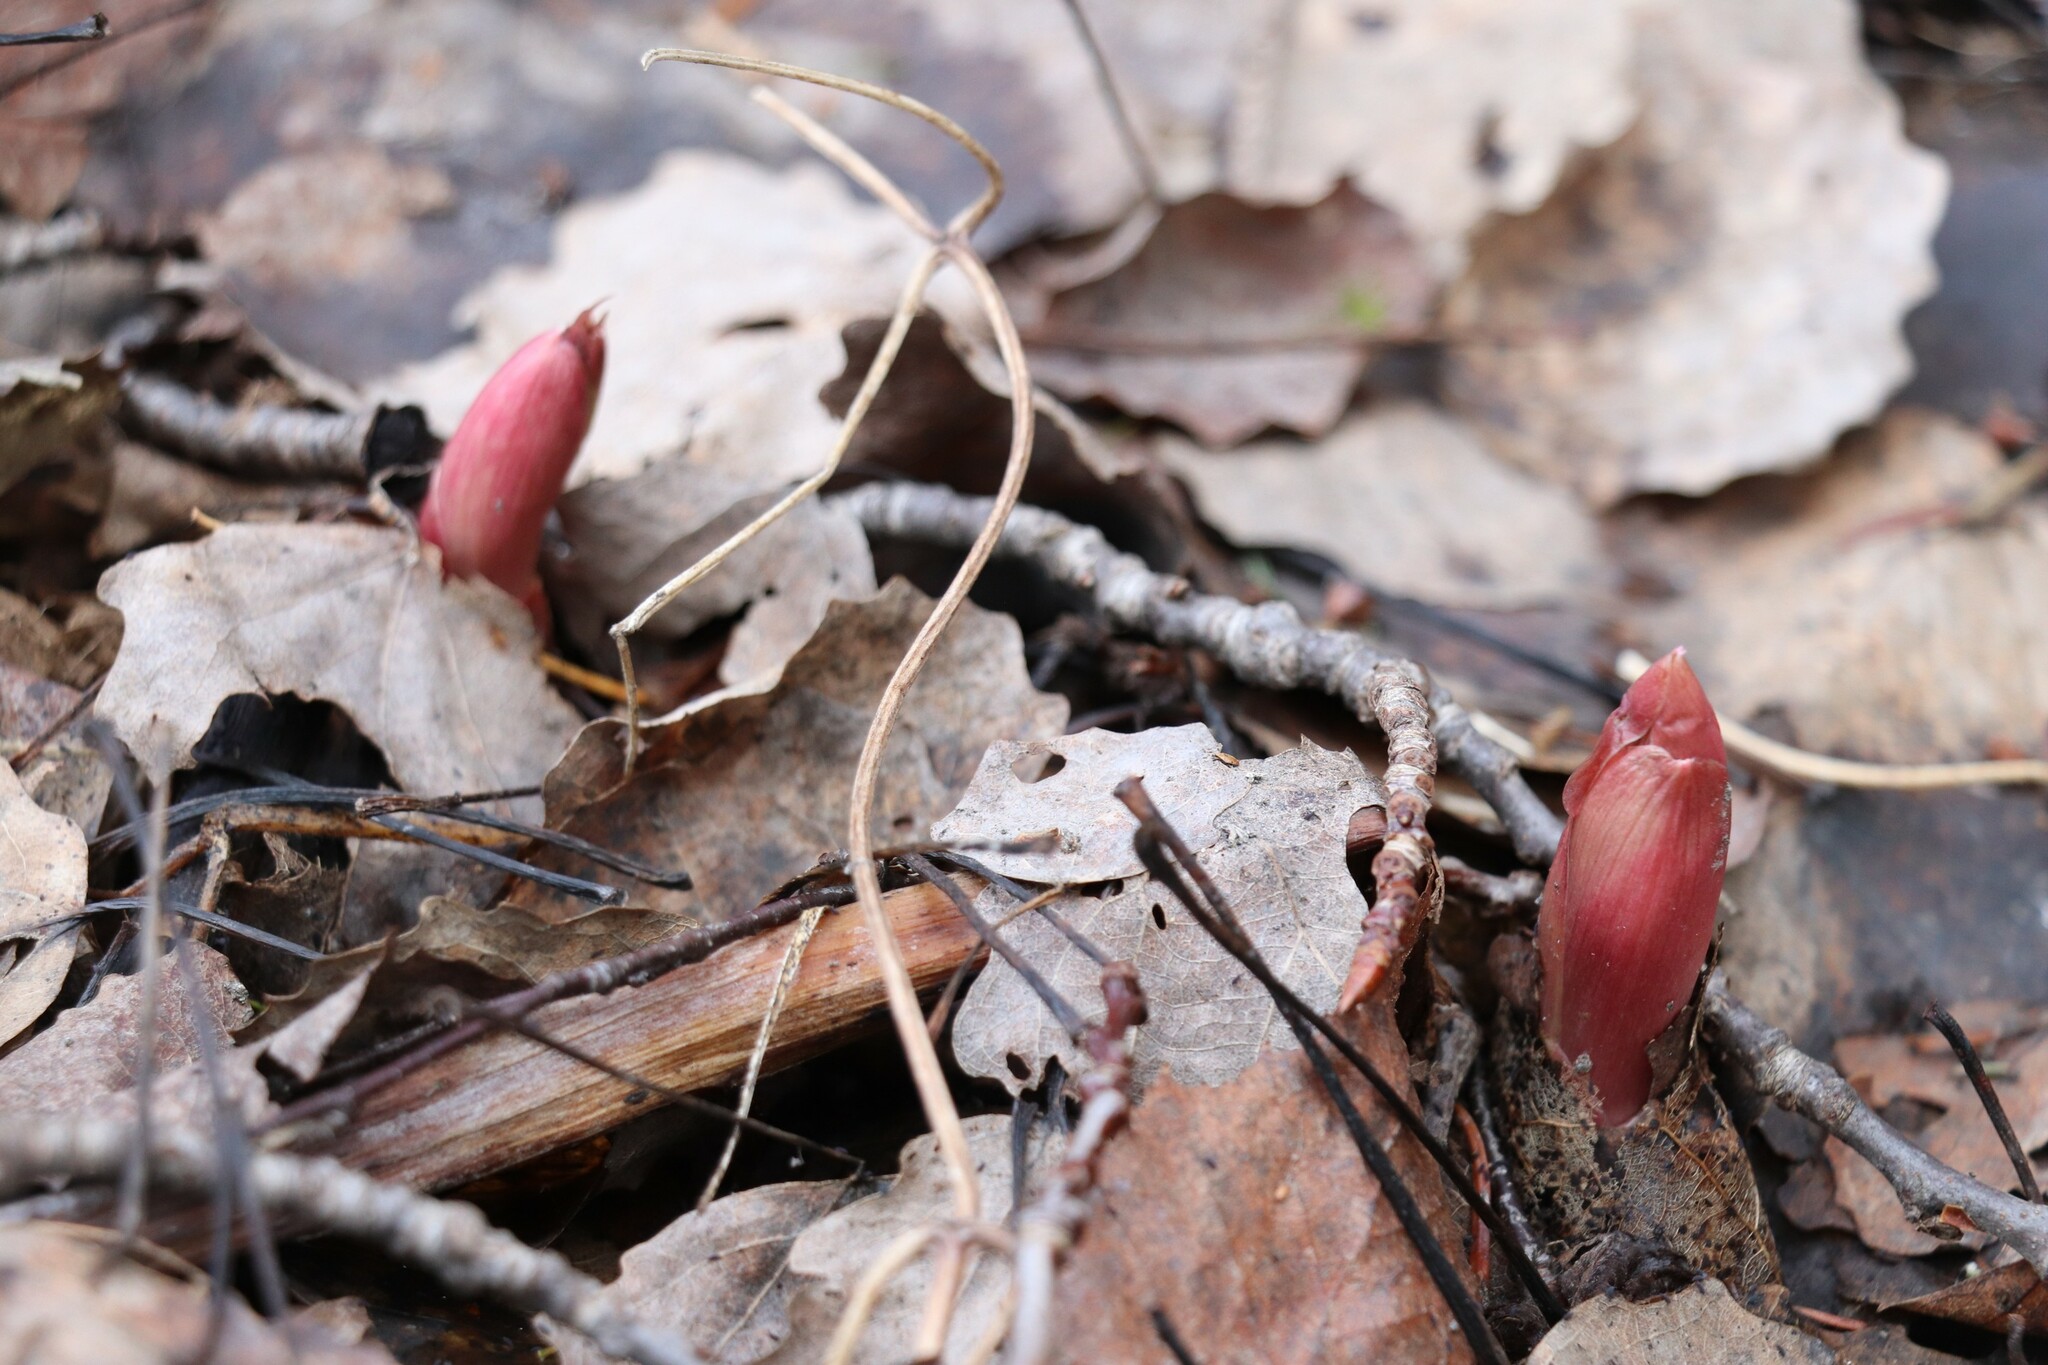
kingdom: Plantae
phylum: Tracheophyta
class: Magnoliopsida
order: Saxifragales
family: Paeoniaceae
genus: Paeonia
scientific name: Paeonia anomala
